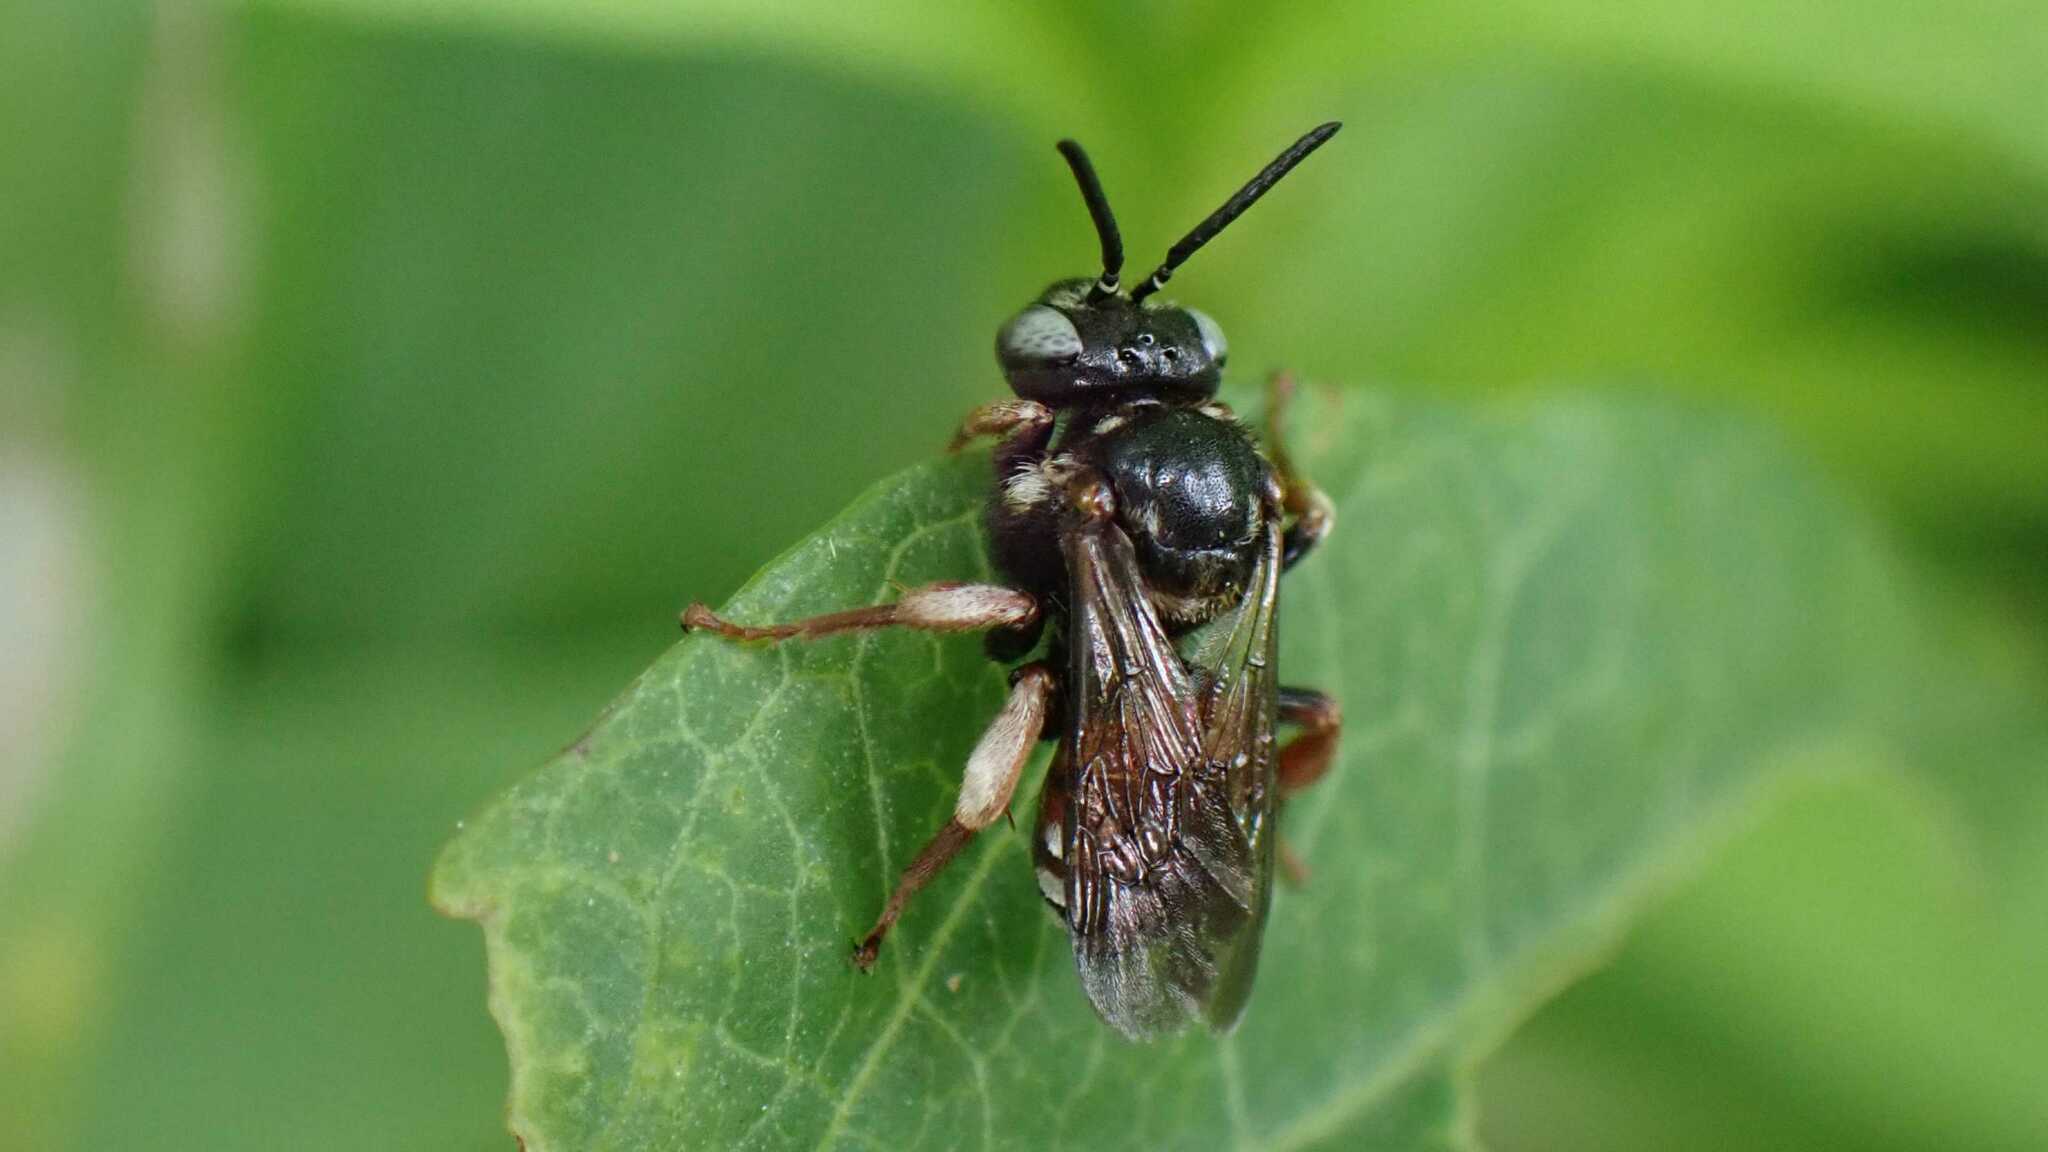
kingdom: Animalia
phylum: Arthropoda
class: Insecta
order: Hymenoptera
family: Apidae
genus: Epeoloides
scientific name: Epeoloides coecutiens
